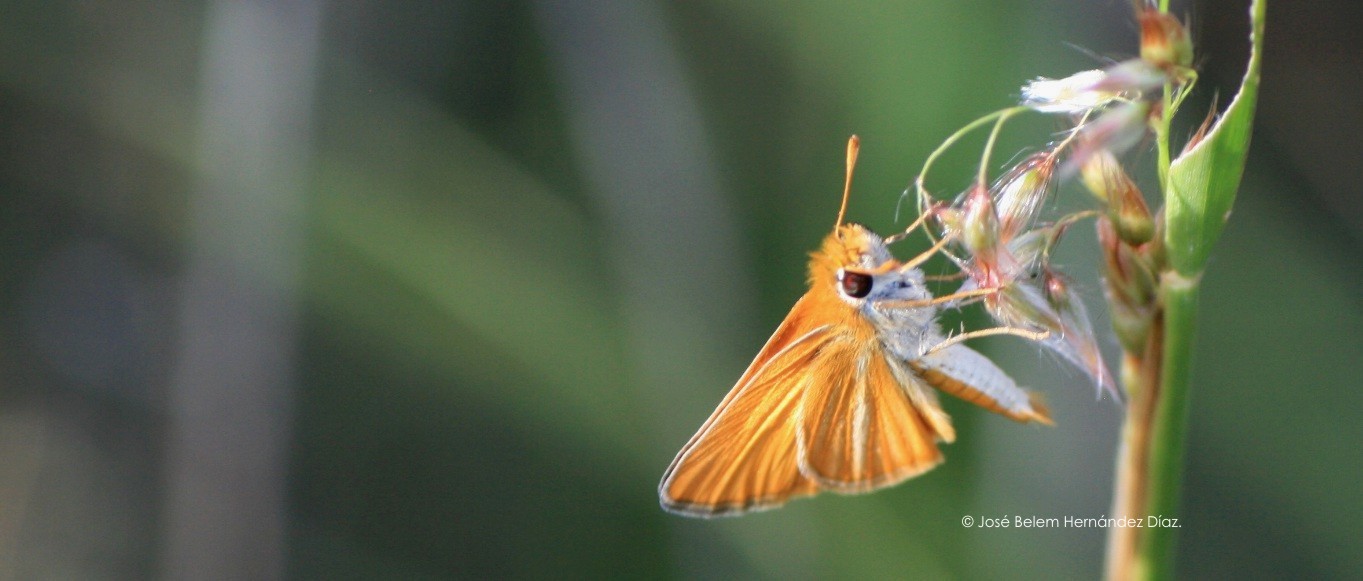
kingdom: Animalia
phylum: Arthropoda
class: Insecta
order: Lepidoptera
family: Hesperiidae
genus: Copaeodes
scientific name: Copaeodes minima
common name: Southern skipperling
